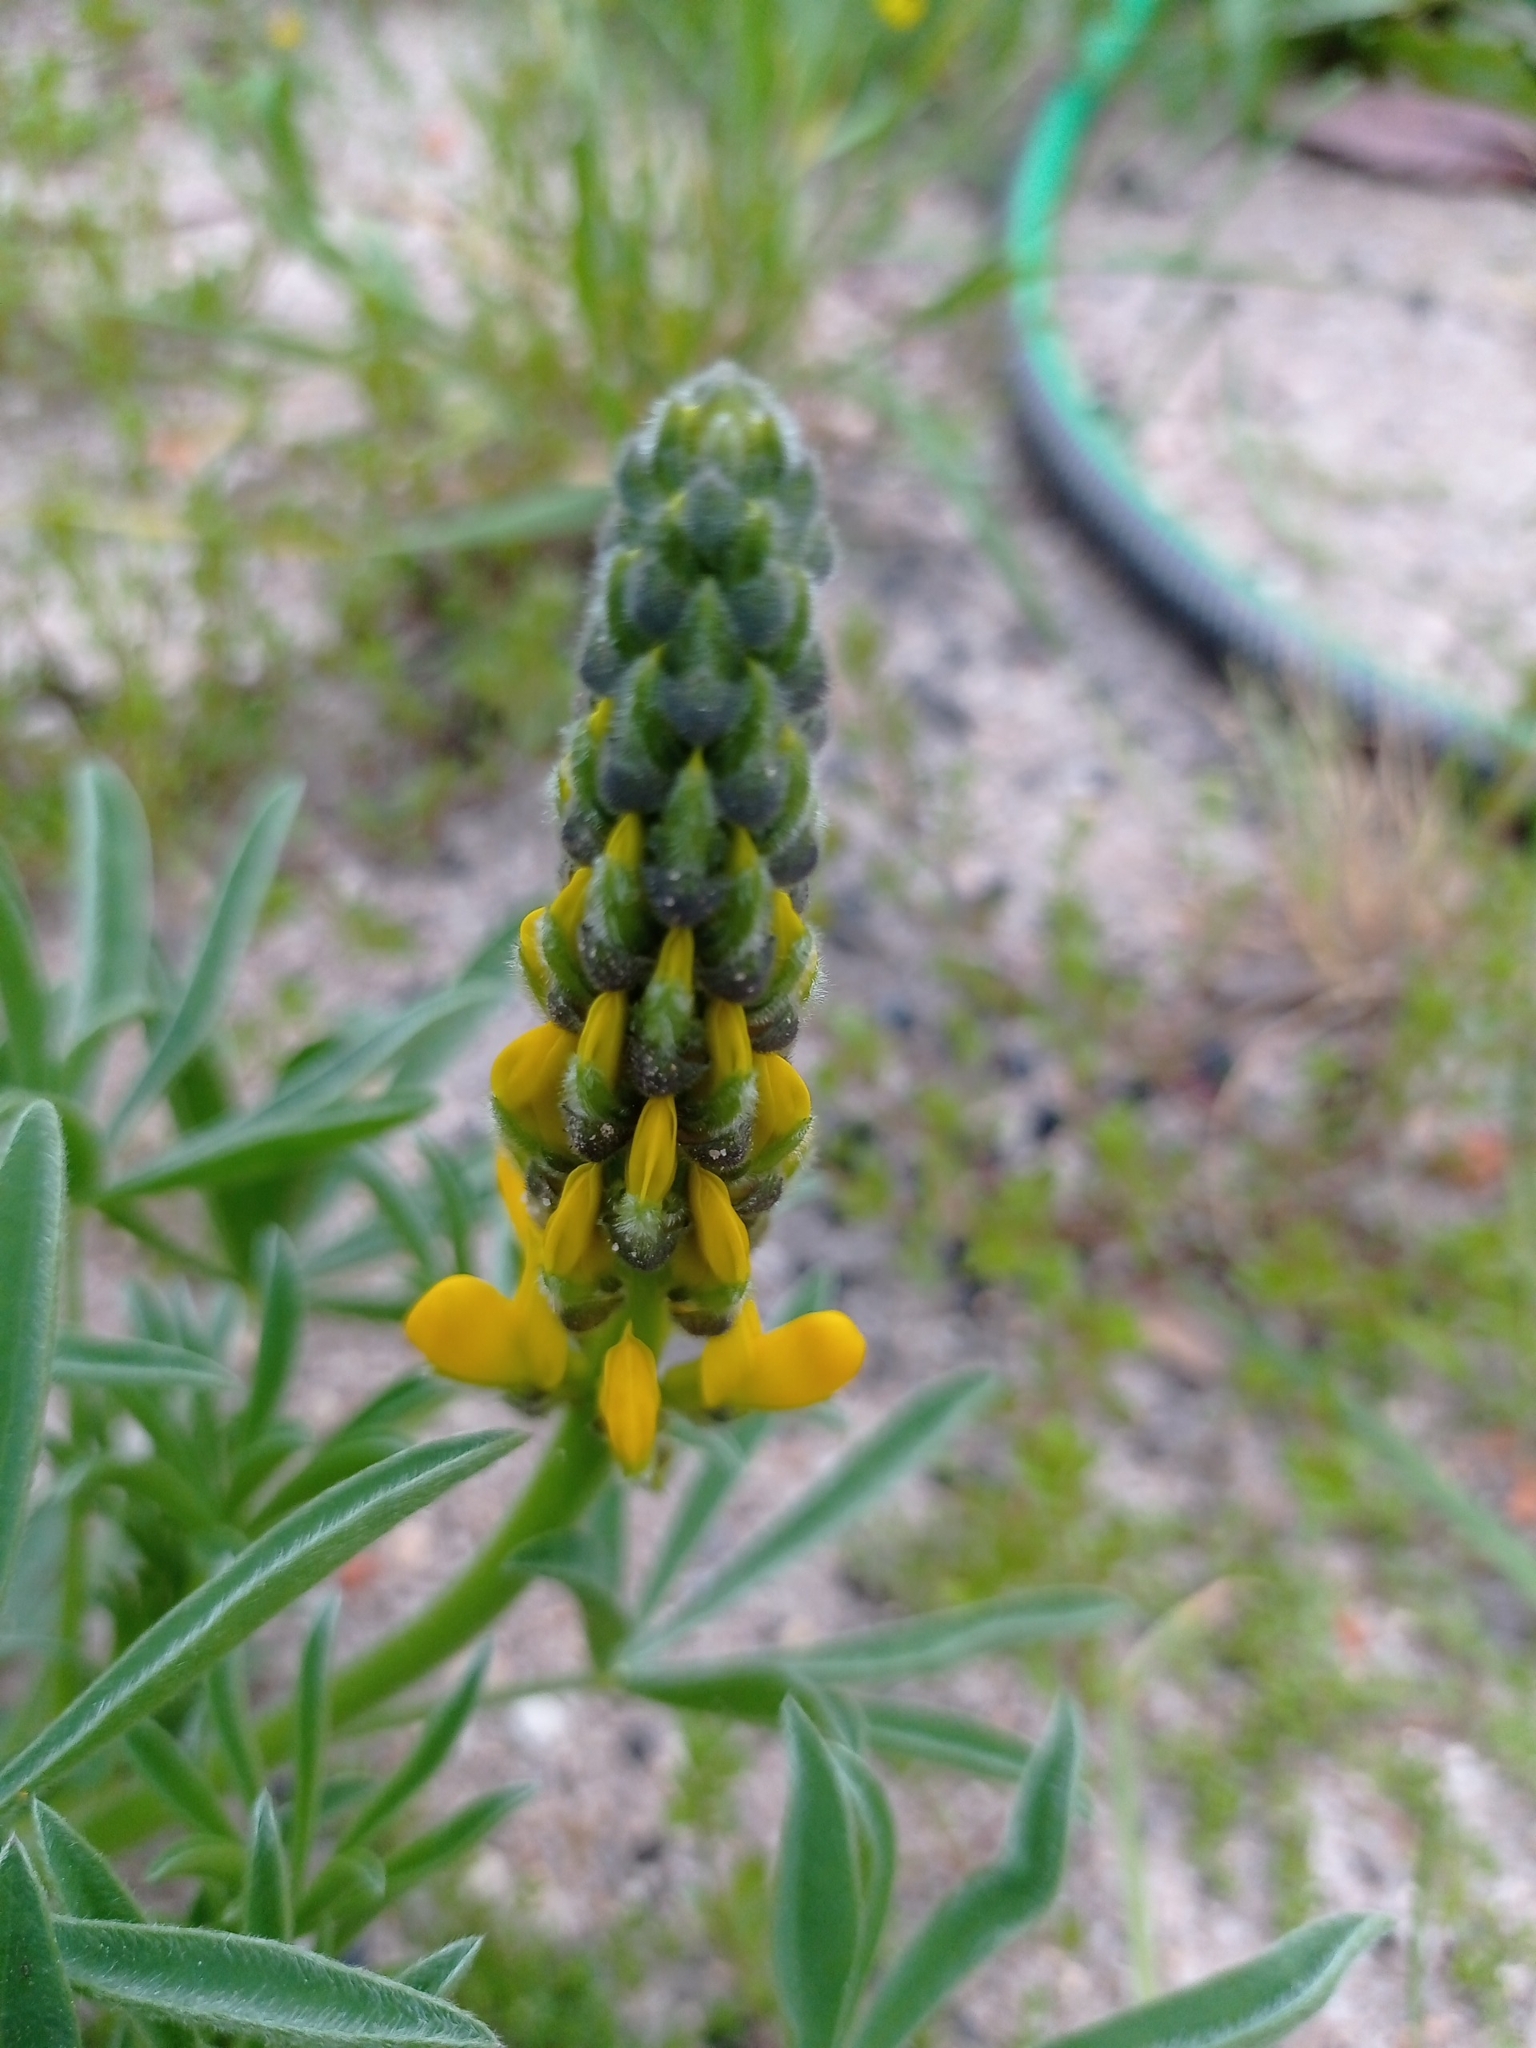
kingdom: Plantae
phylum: Tracheophyta
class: Magnoliopsida
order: Fabales
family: Fabaceae
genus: Lupinus
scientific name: Lupinus luteus
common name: European yellow lupine
